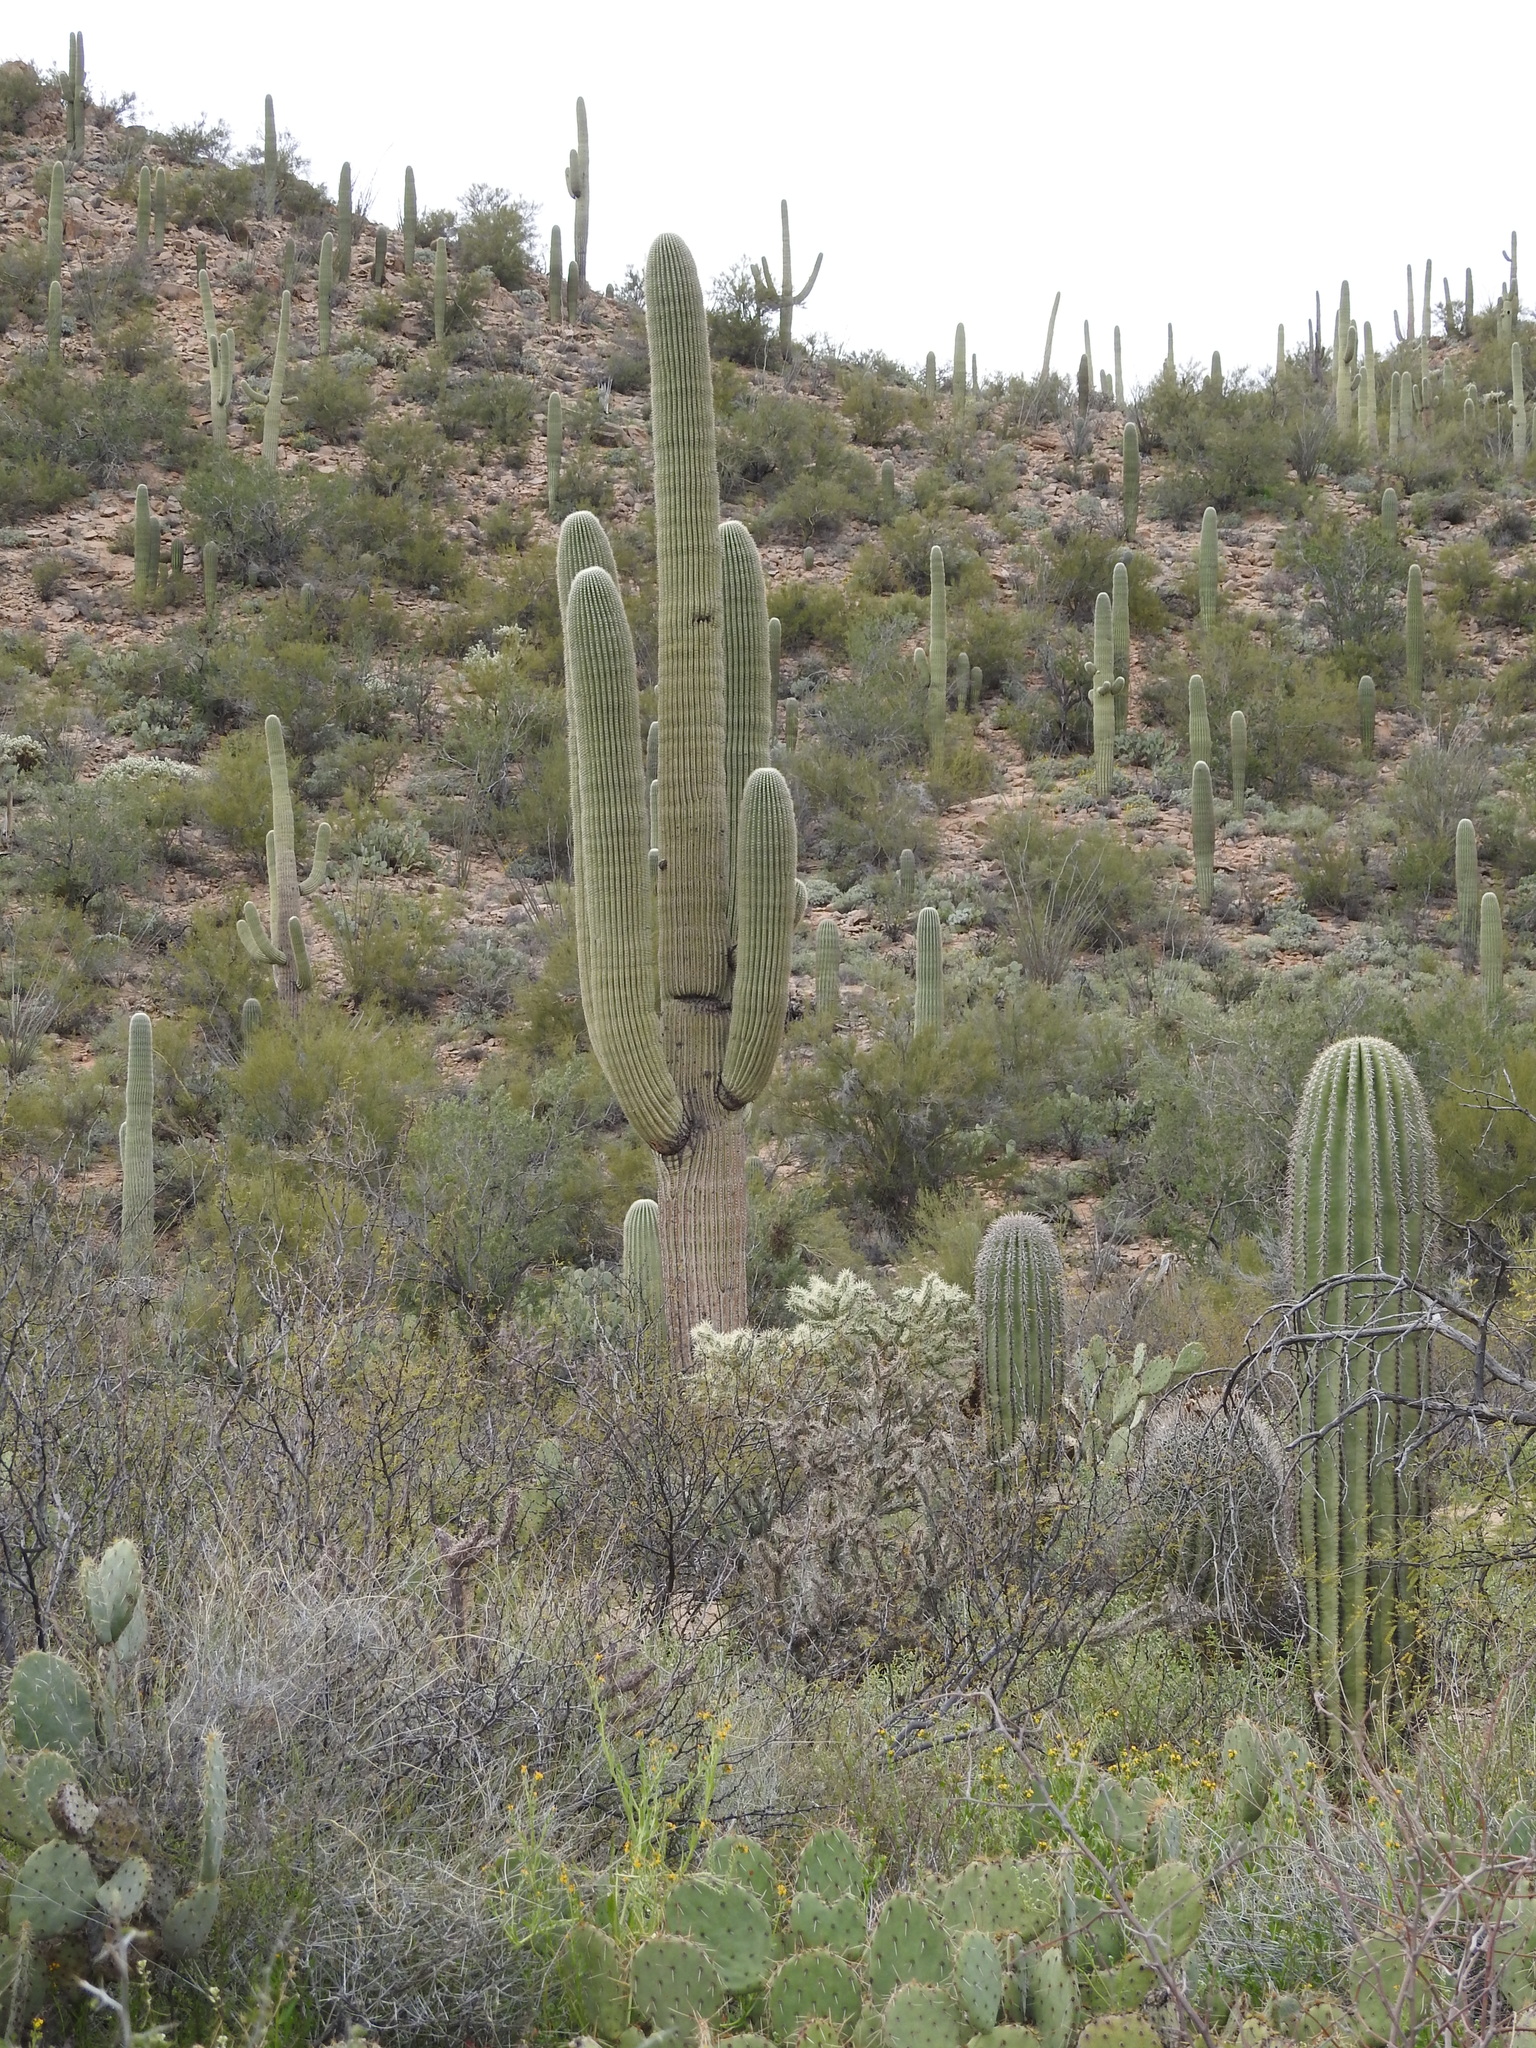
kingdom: Plantae
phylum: Tracheophyta
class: Magnoliopsida
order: Caryophyllales
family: Cactaceae
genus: Carnegiea
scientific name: Carnegiea gigantea
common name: Saguaro
